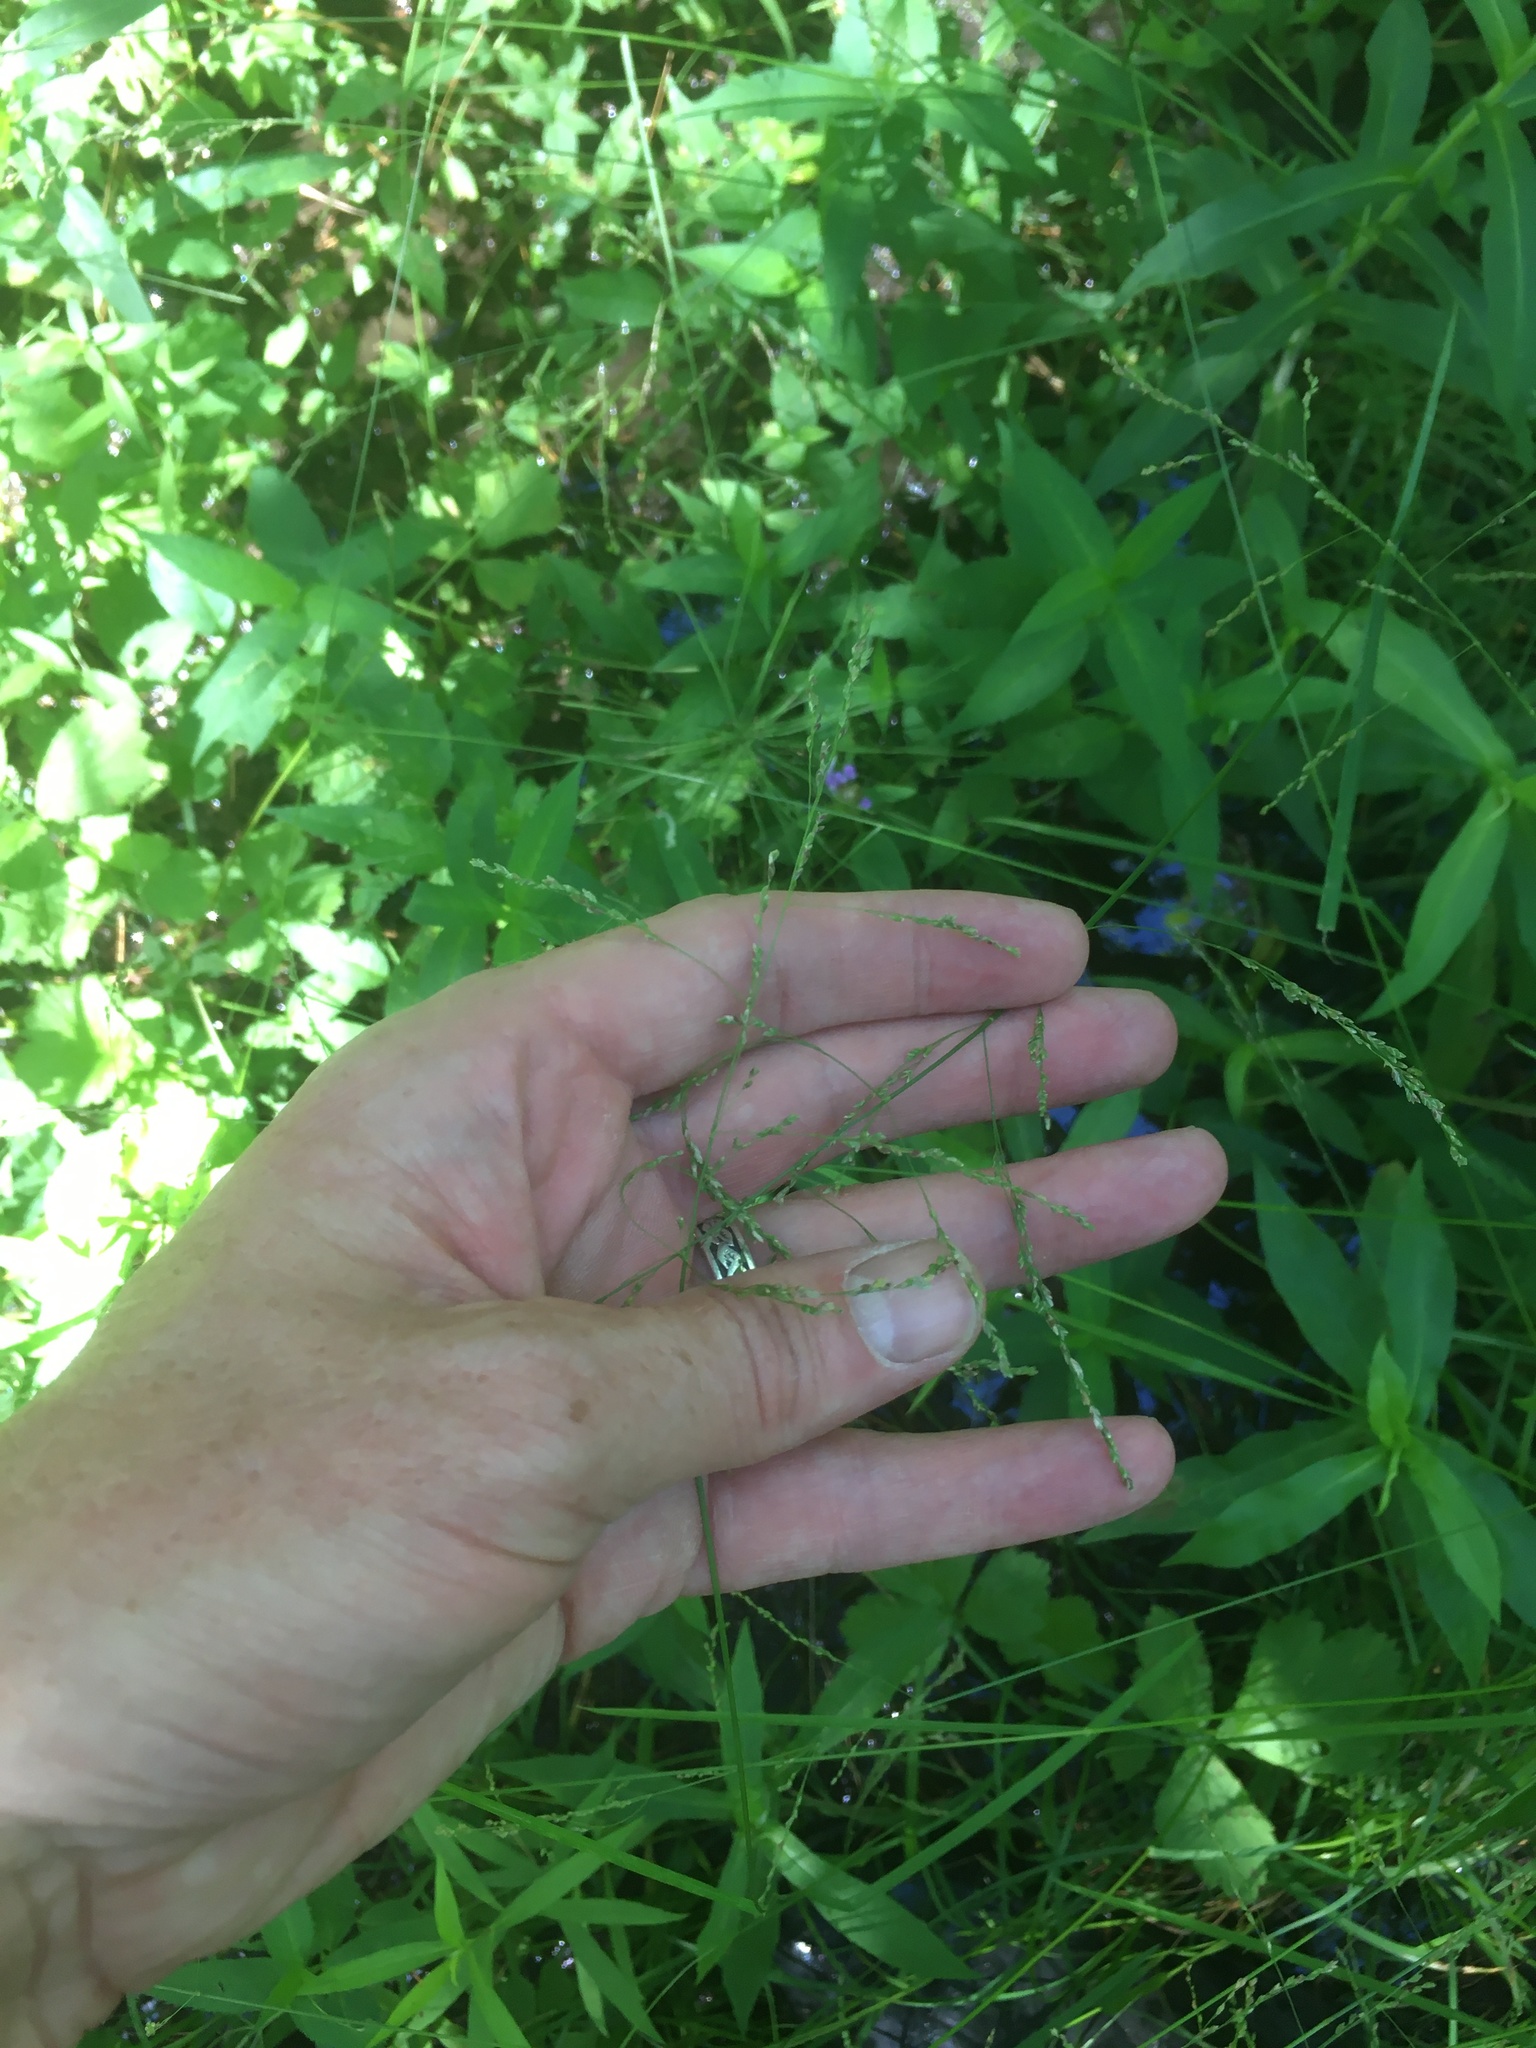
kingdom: Plantae
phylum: Tracheophyta
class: Liliopsida
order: Poales
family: Poaceae
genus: Glyceria
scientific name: Glyceria striata
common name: Fowl manna grass
